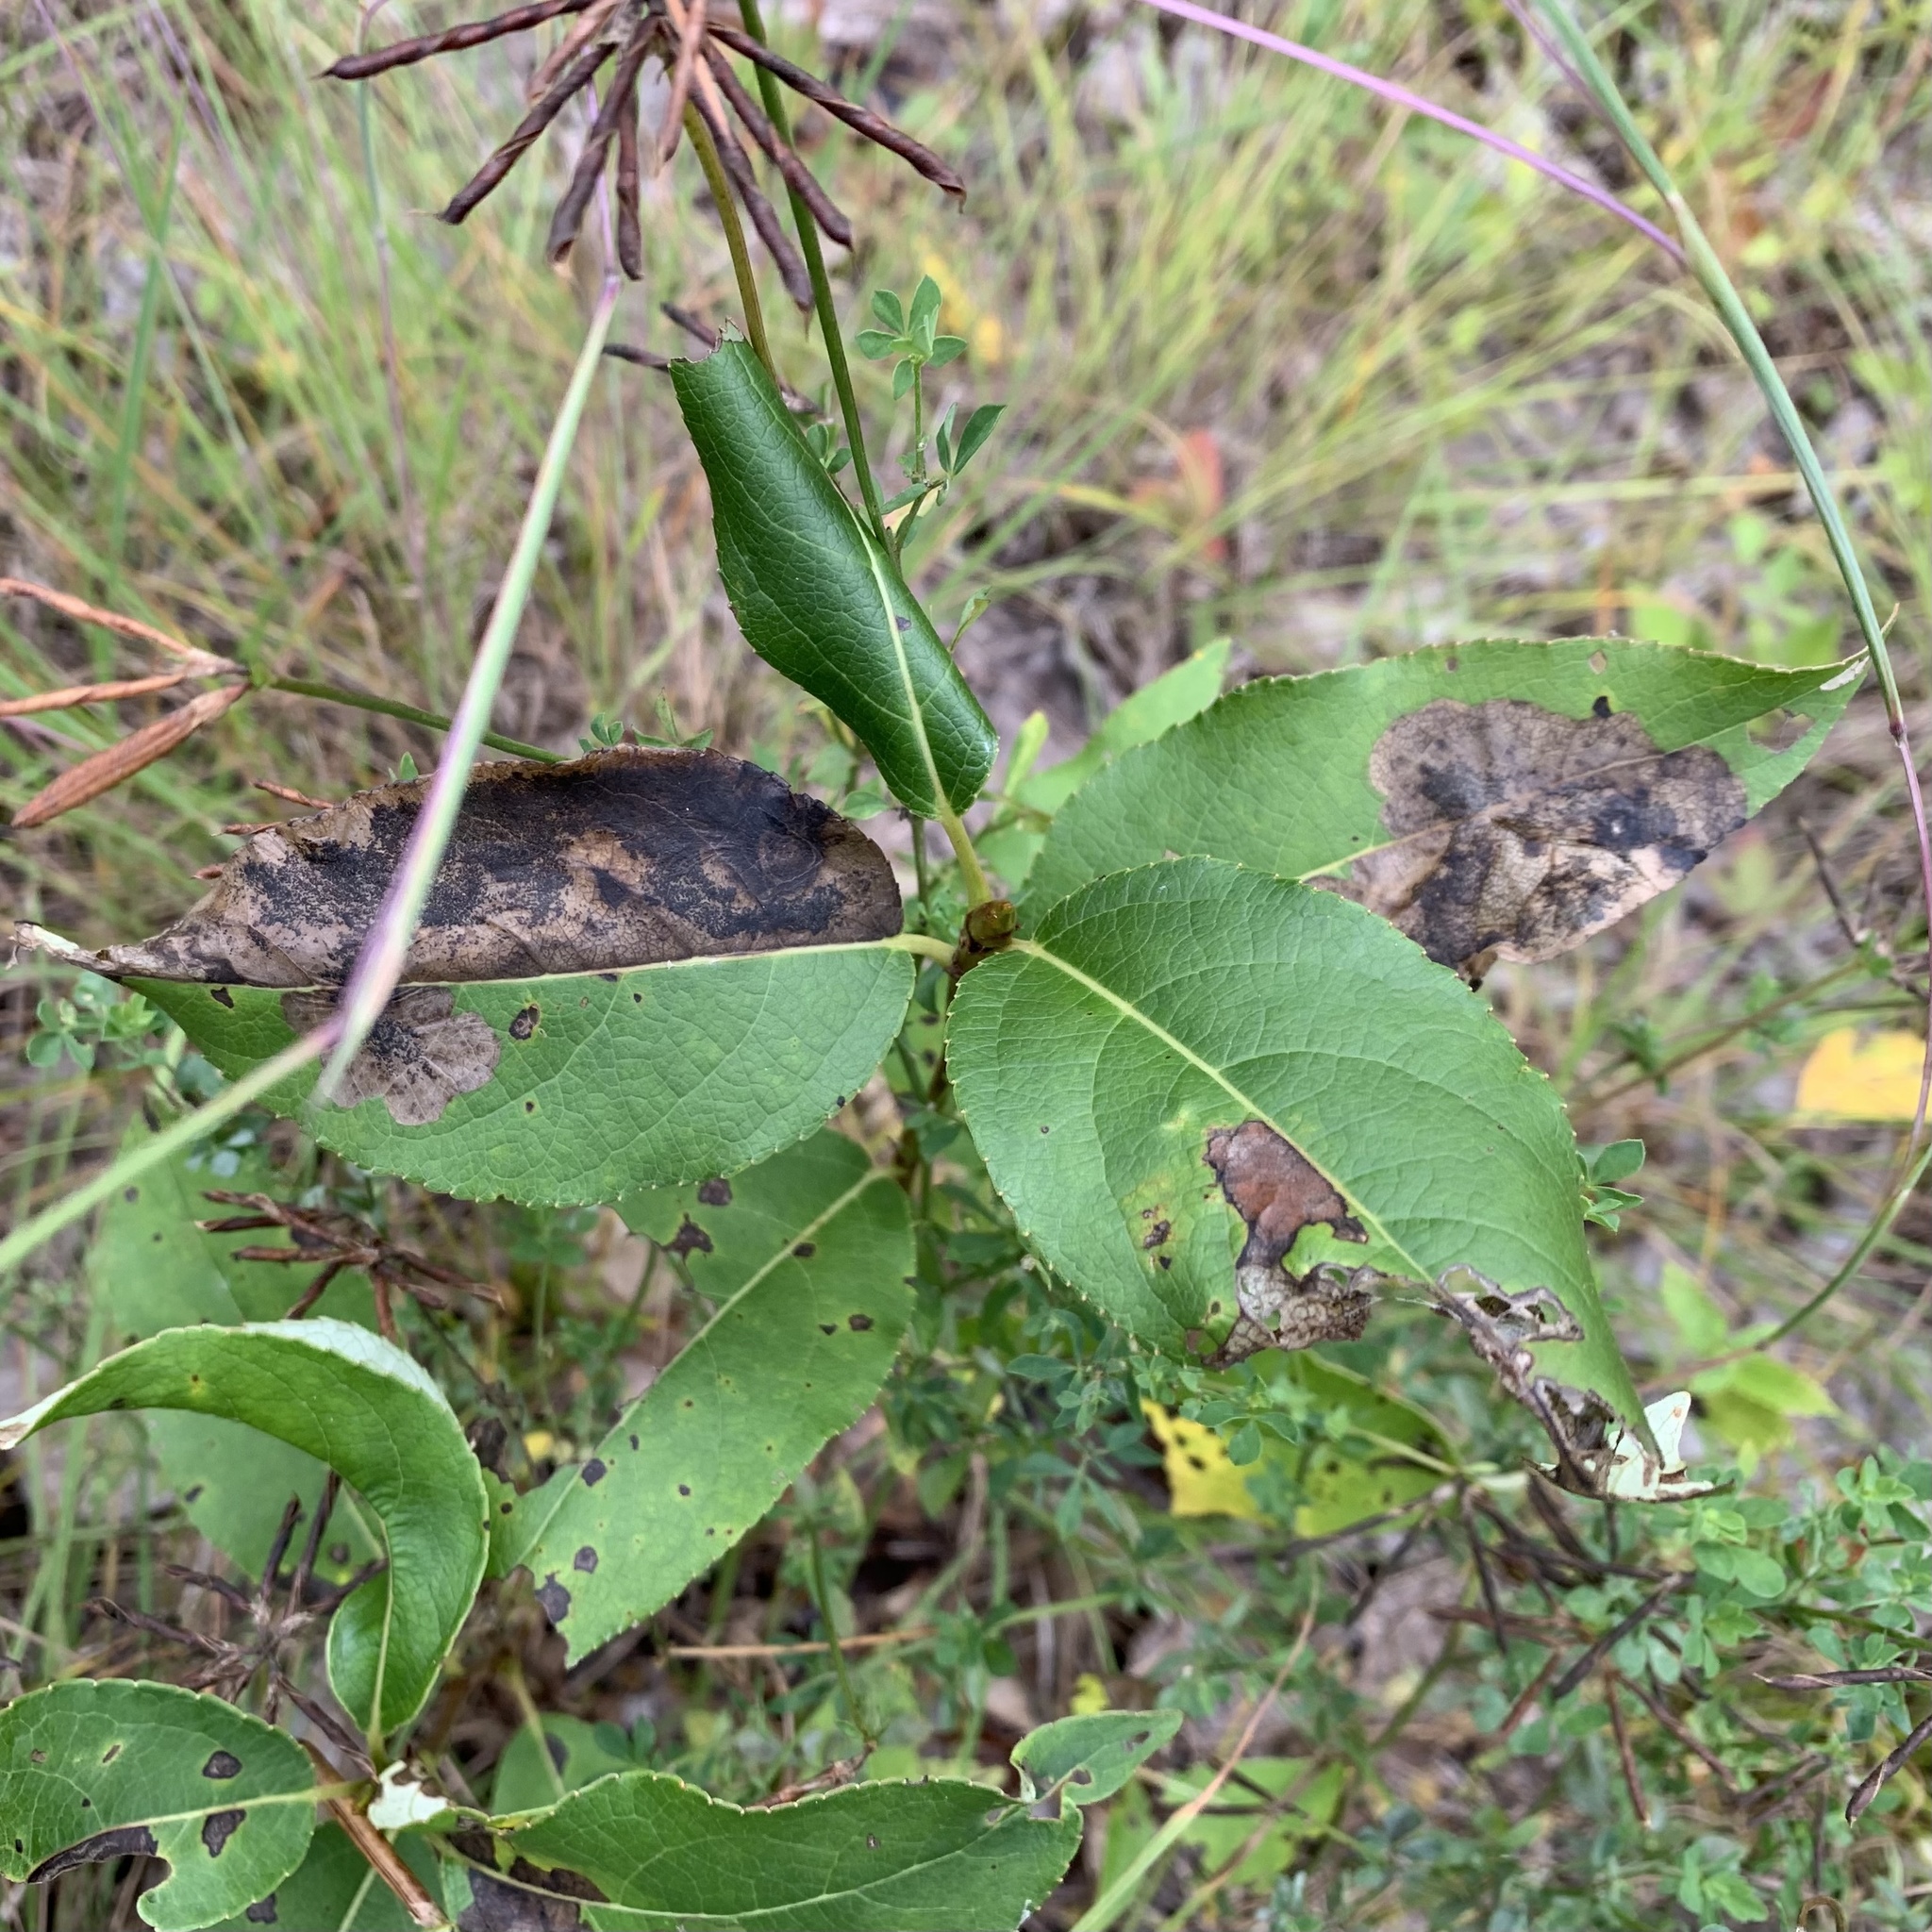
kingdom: Plantae
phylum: Tracheophyta
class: Magnoliopsida
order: Malpighiales
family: Salicaceae
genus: Populus
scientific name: Populus balsamifera
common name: Balsam poplar
